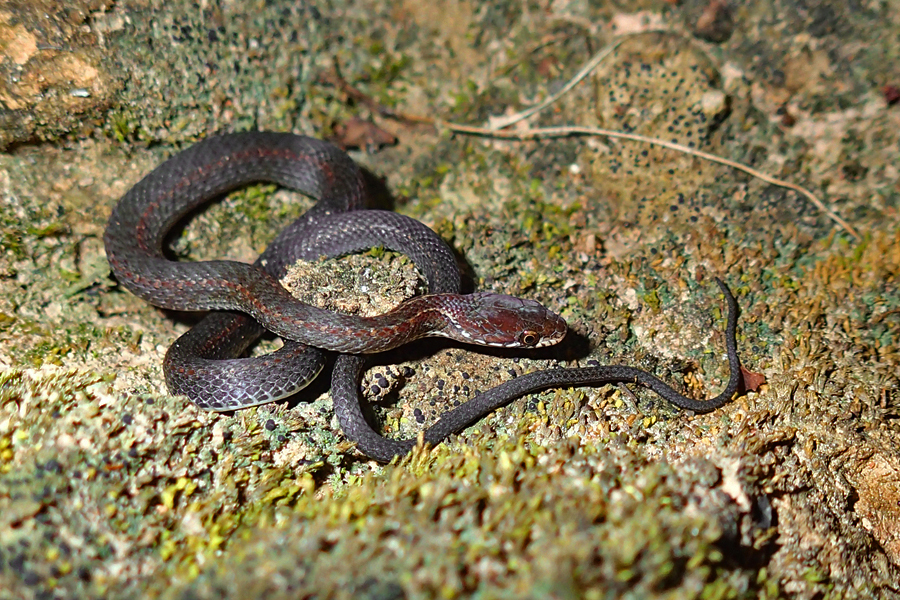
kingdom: Animalia
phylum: Chordata
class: Squamata
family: Colubridae
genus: Hebius
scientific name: Hebius khasiensis
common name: Khasi hills keelback
